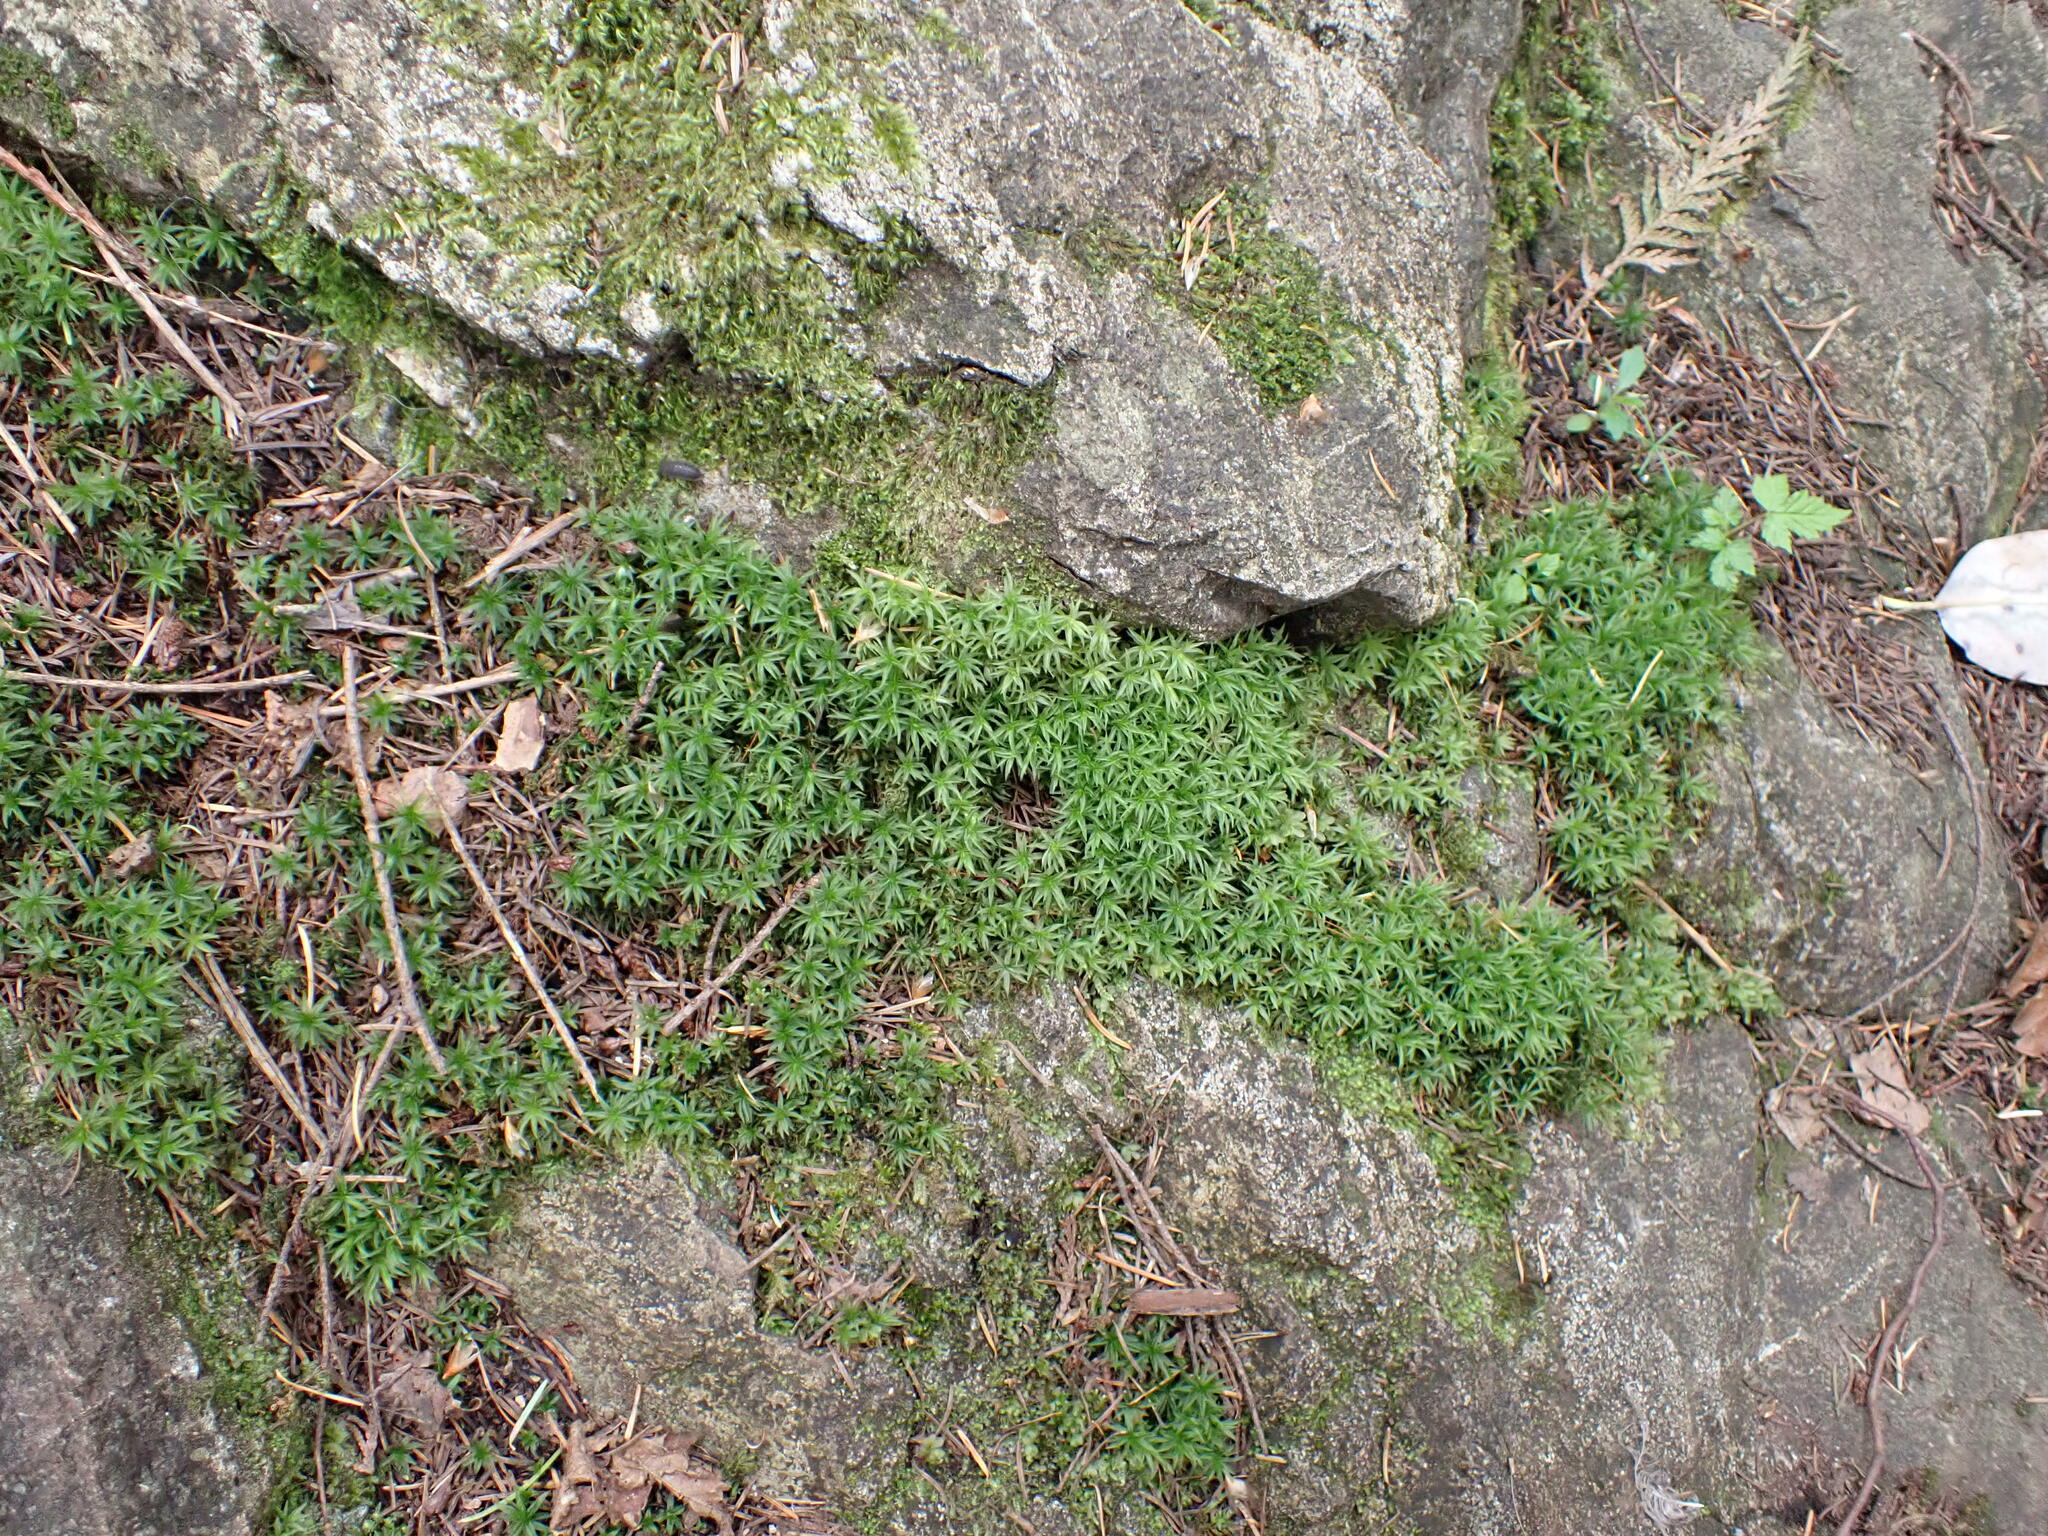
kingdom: Plantae
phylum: Bryophyta
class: Polytrichopsida
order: Polytrichales
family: Polytrichaceae
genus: Atrichum
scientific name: Atrichum undulatum
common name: Common smoothcap
